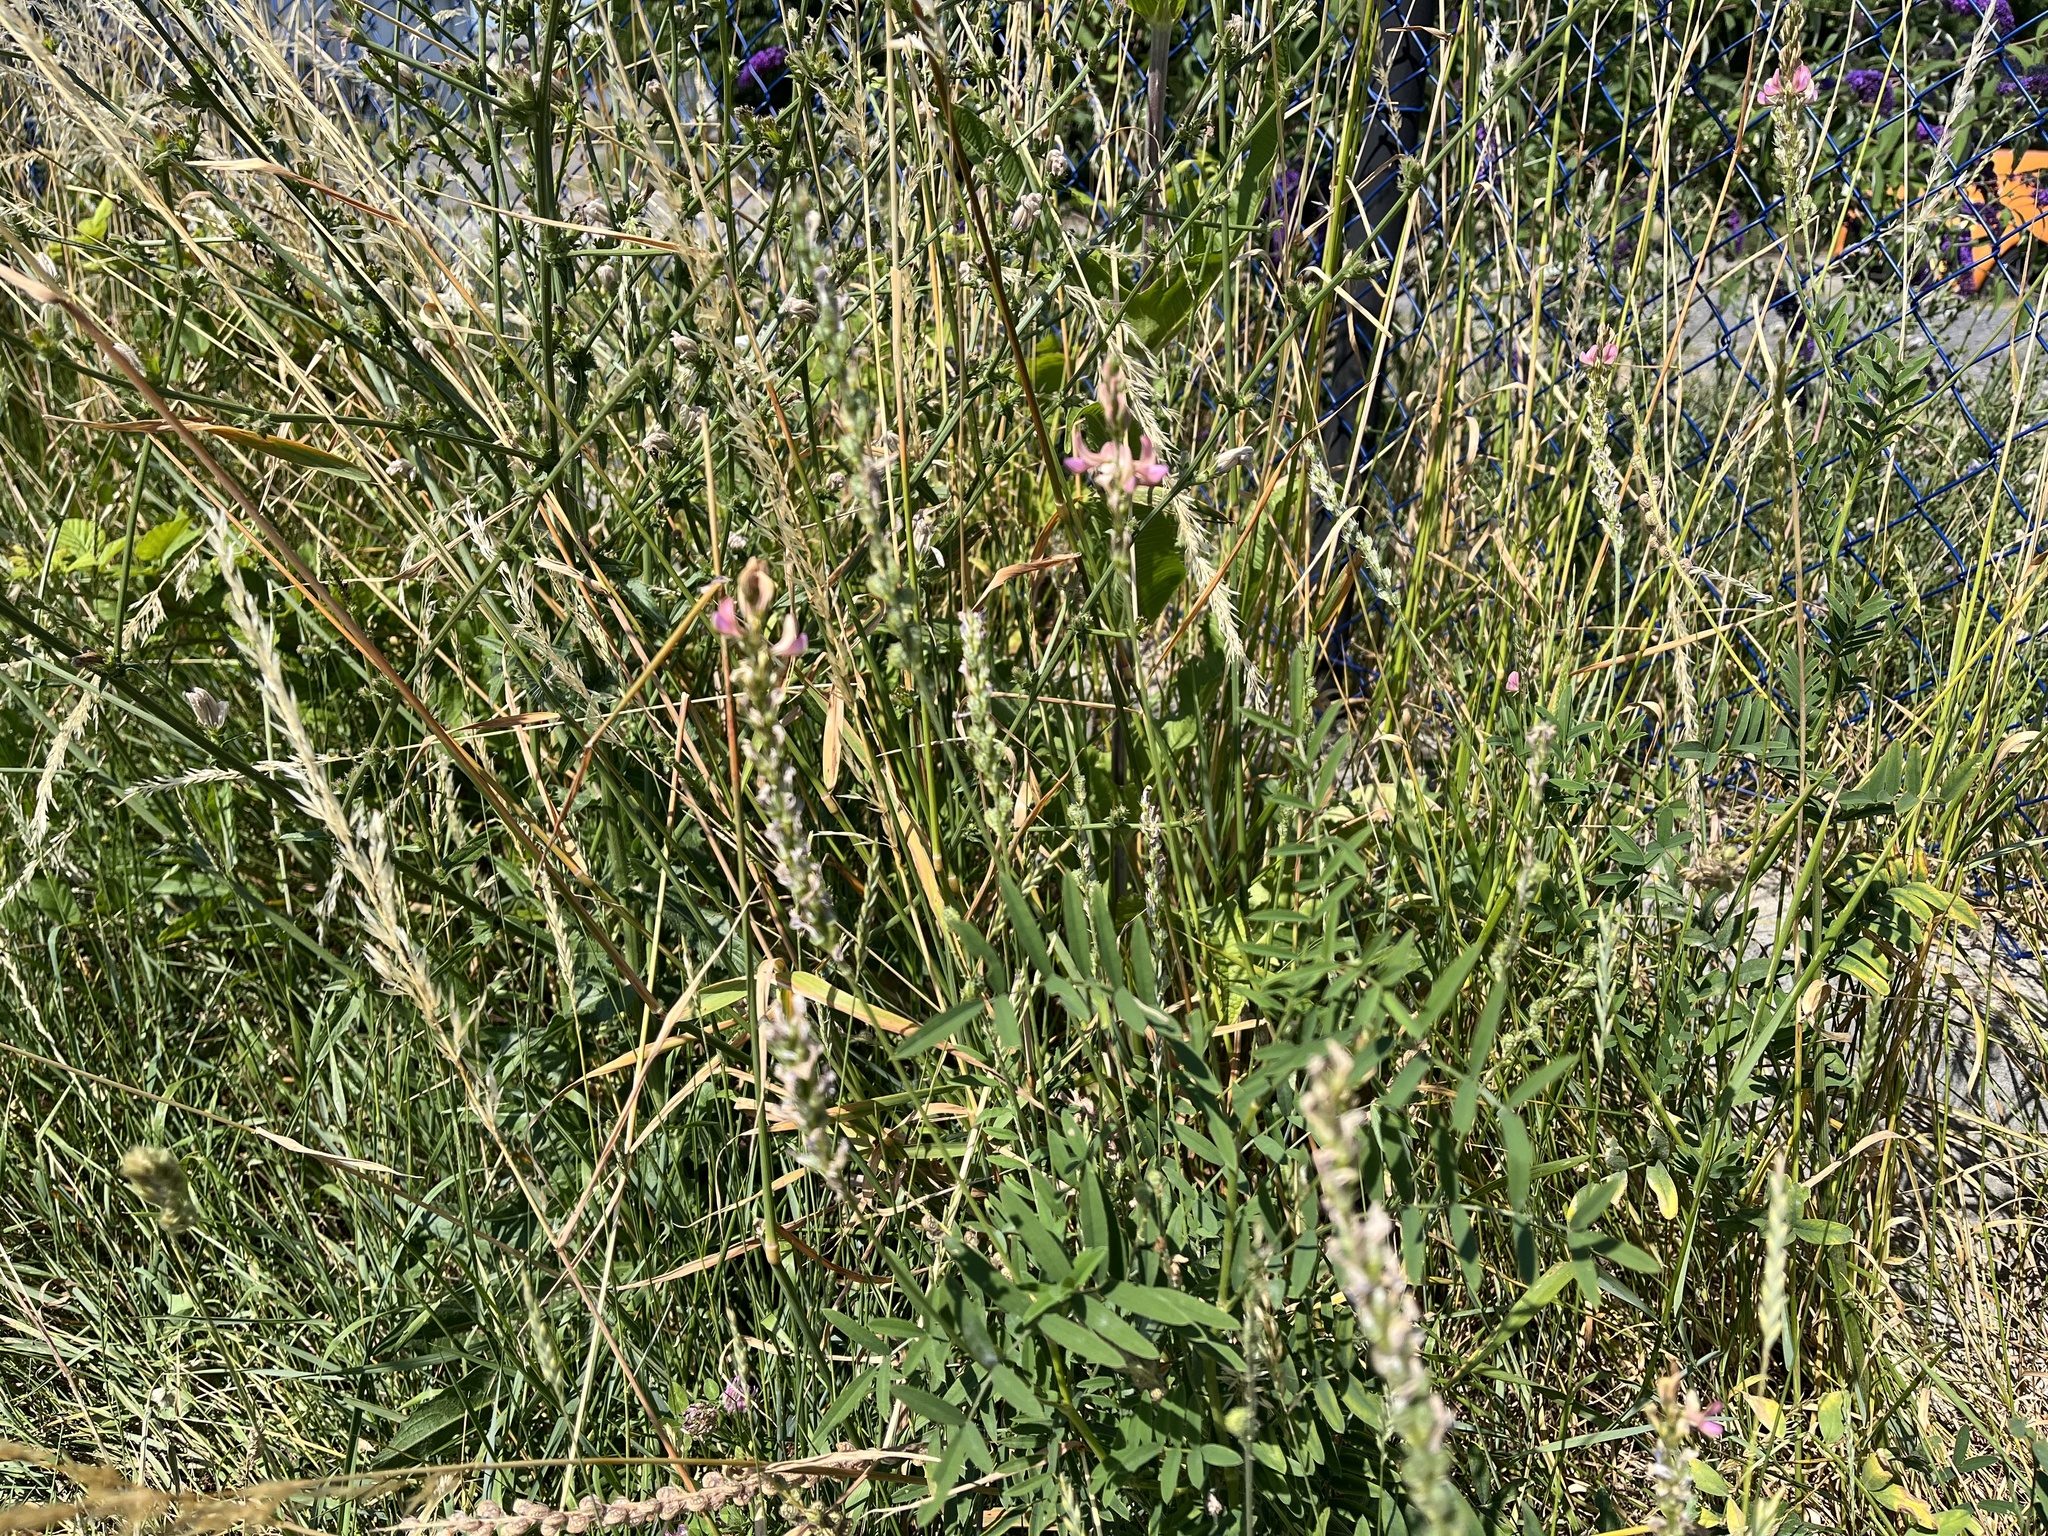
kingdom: Plantae
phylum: Tracheophyta
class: Magnoliopsida
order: Fabales
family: Fabaceae
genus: Onobrychis
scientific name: Onobrychis viciifolia
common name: Sainfoin
